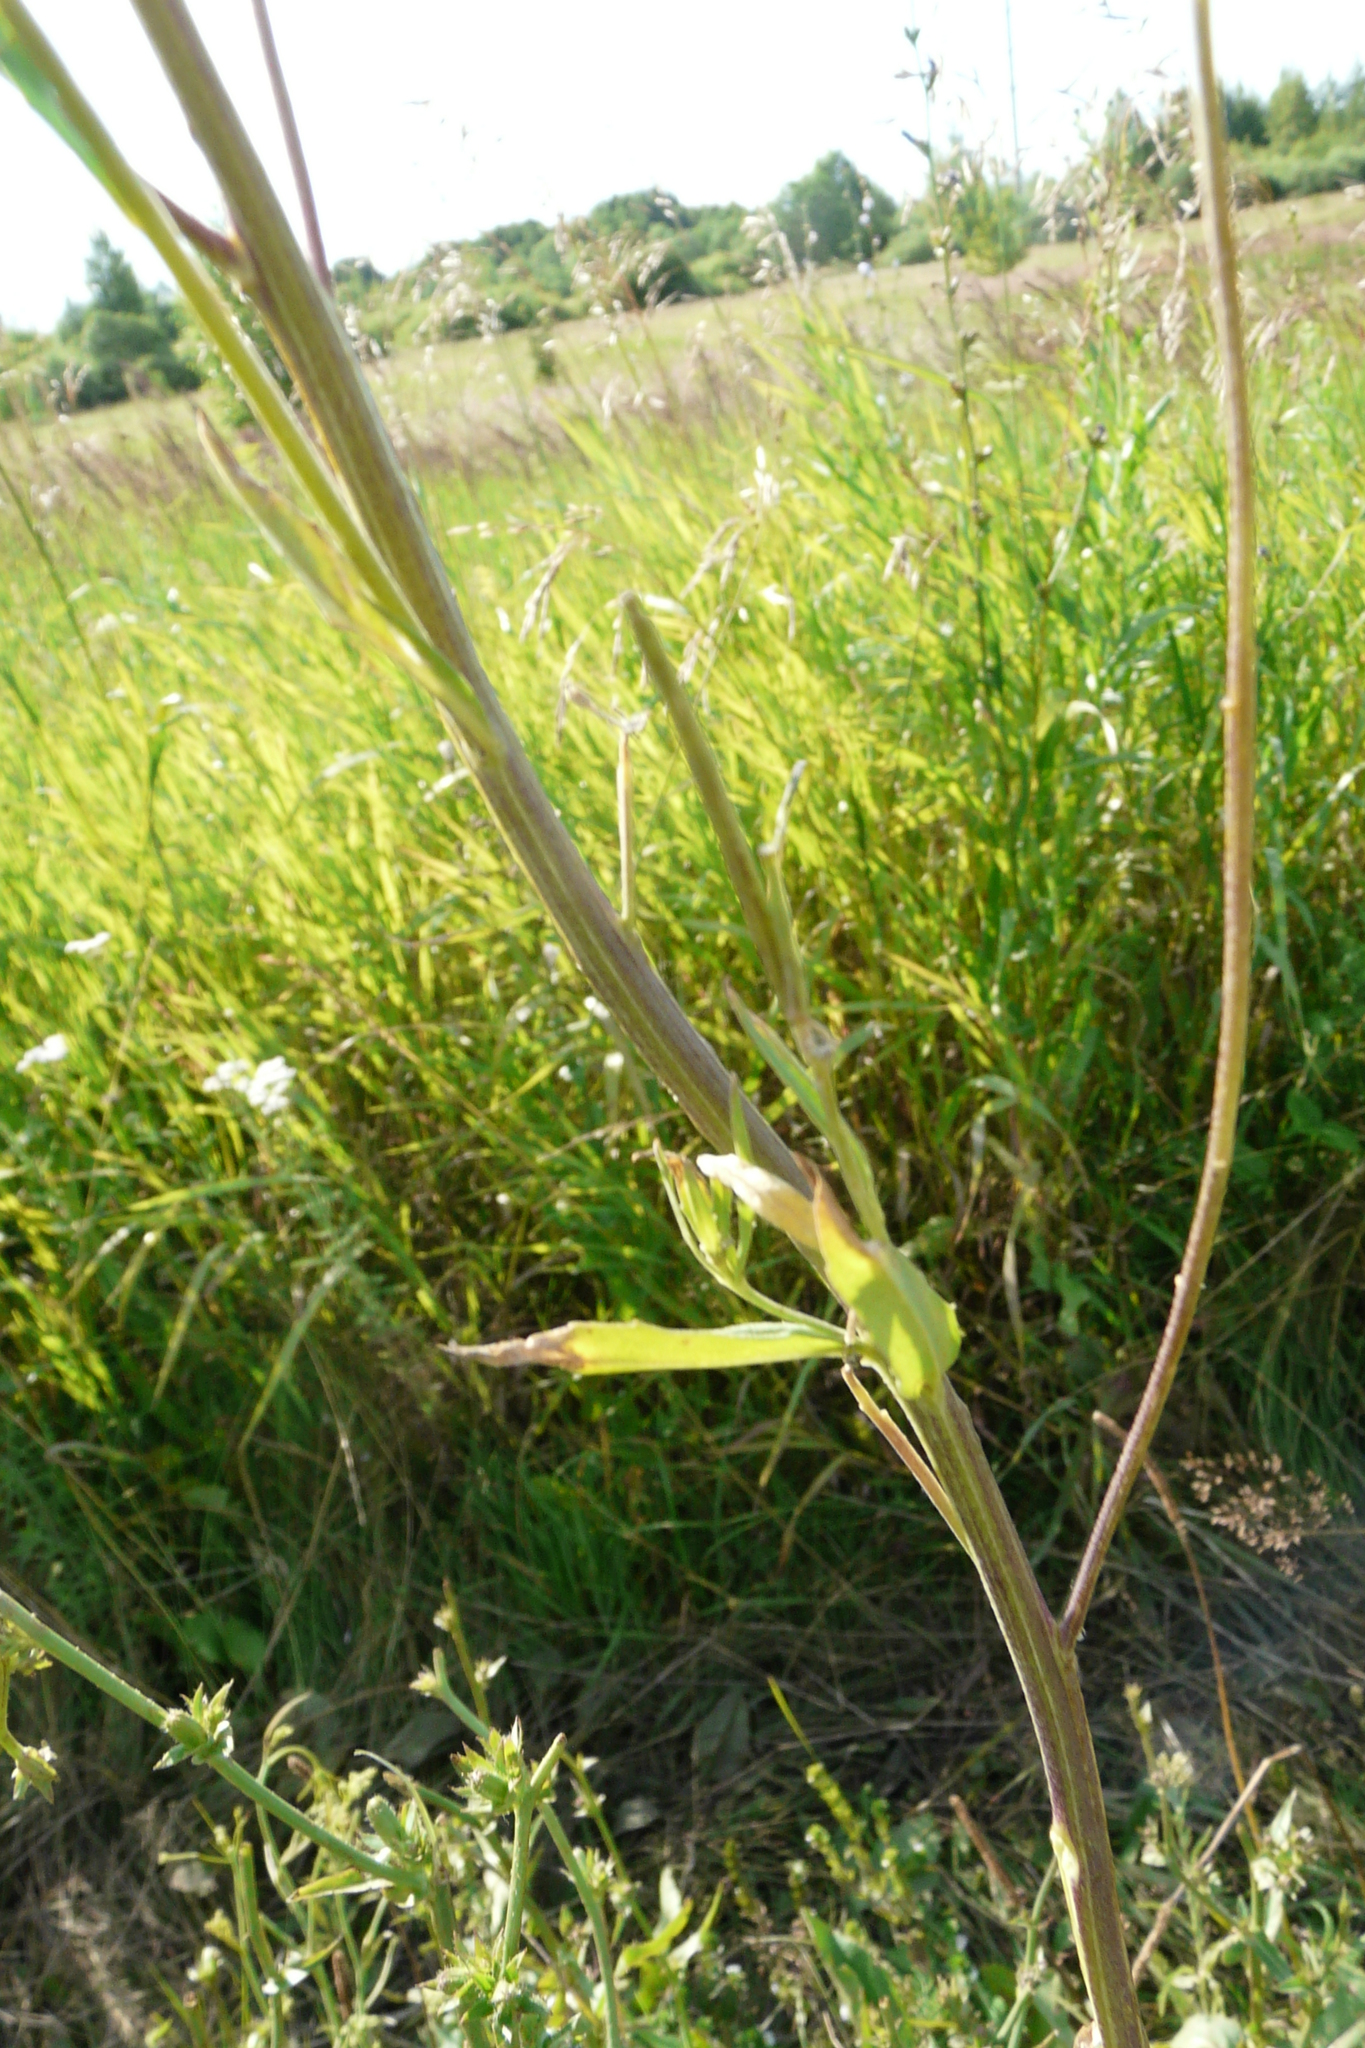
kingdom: Plantae
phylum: Tracheophyta
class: Magnoliopsida
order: Brassicales
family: Brassicaceae
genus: Erysimum
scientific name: Erysimum hieraciifolium
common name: European wallflower
